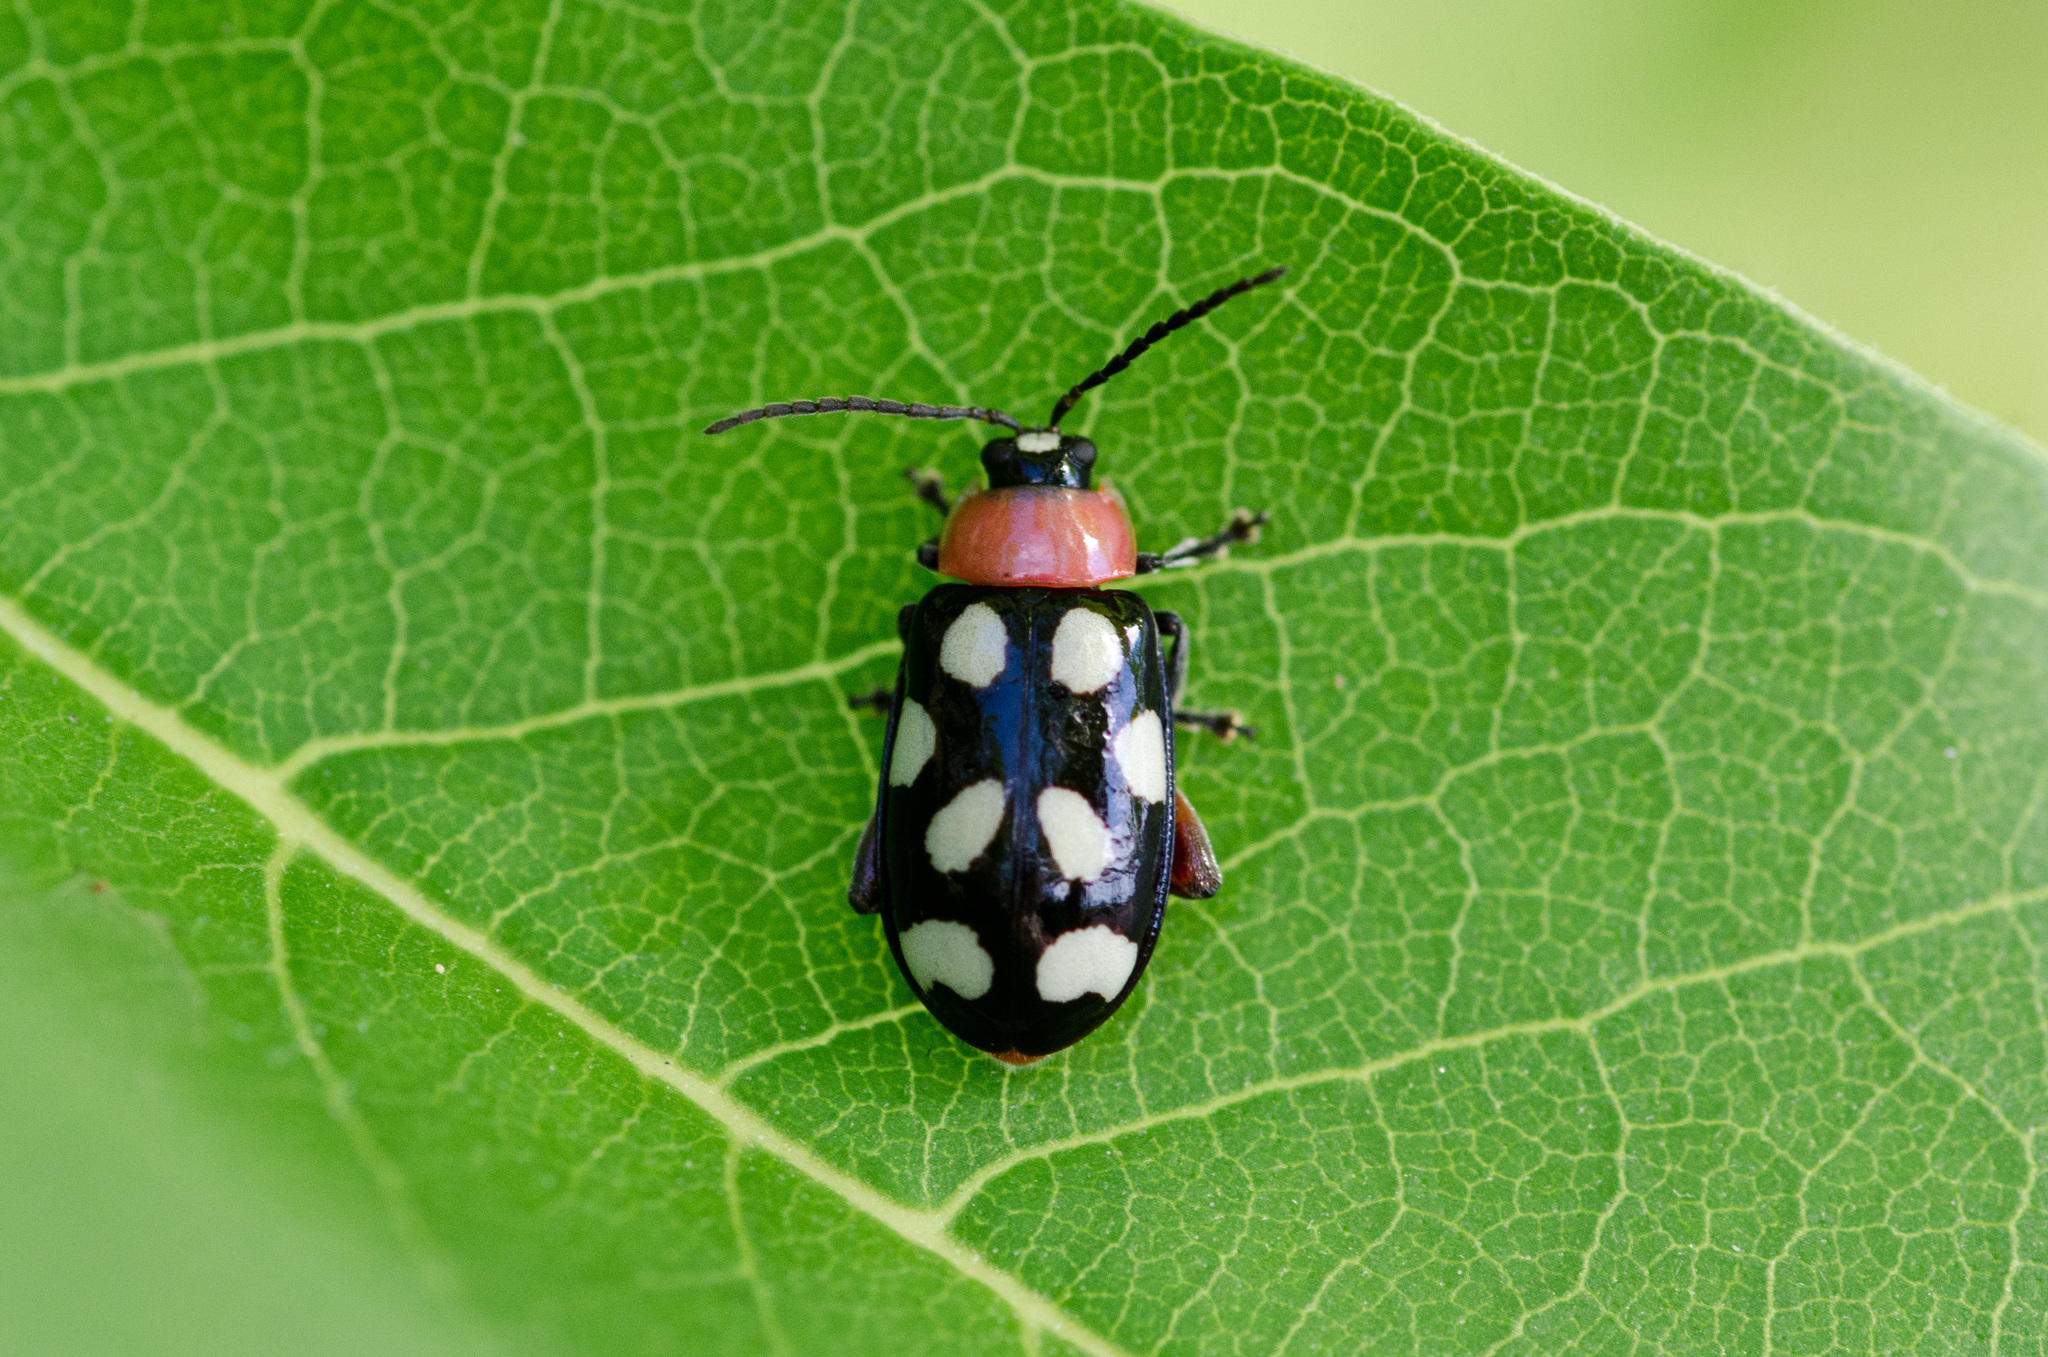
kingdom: Animalia
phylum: Arthropoda
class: Insecta
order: Coleoptera
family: Chrysomelidae
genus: Omophoita
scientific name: Omophoita cyanipennis
